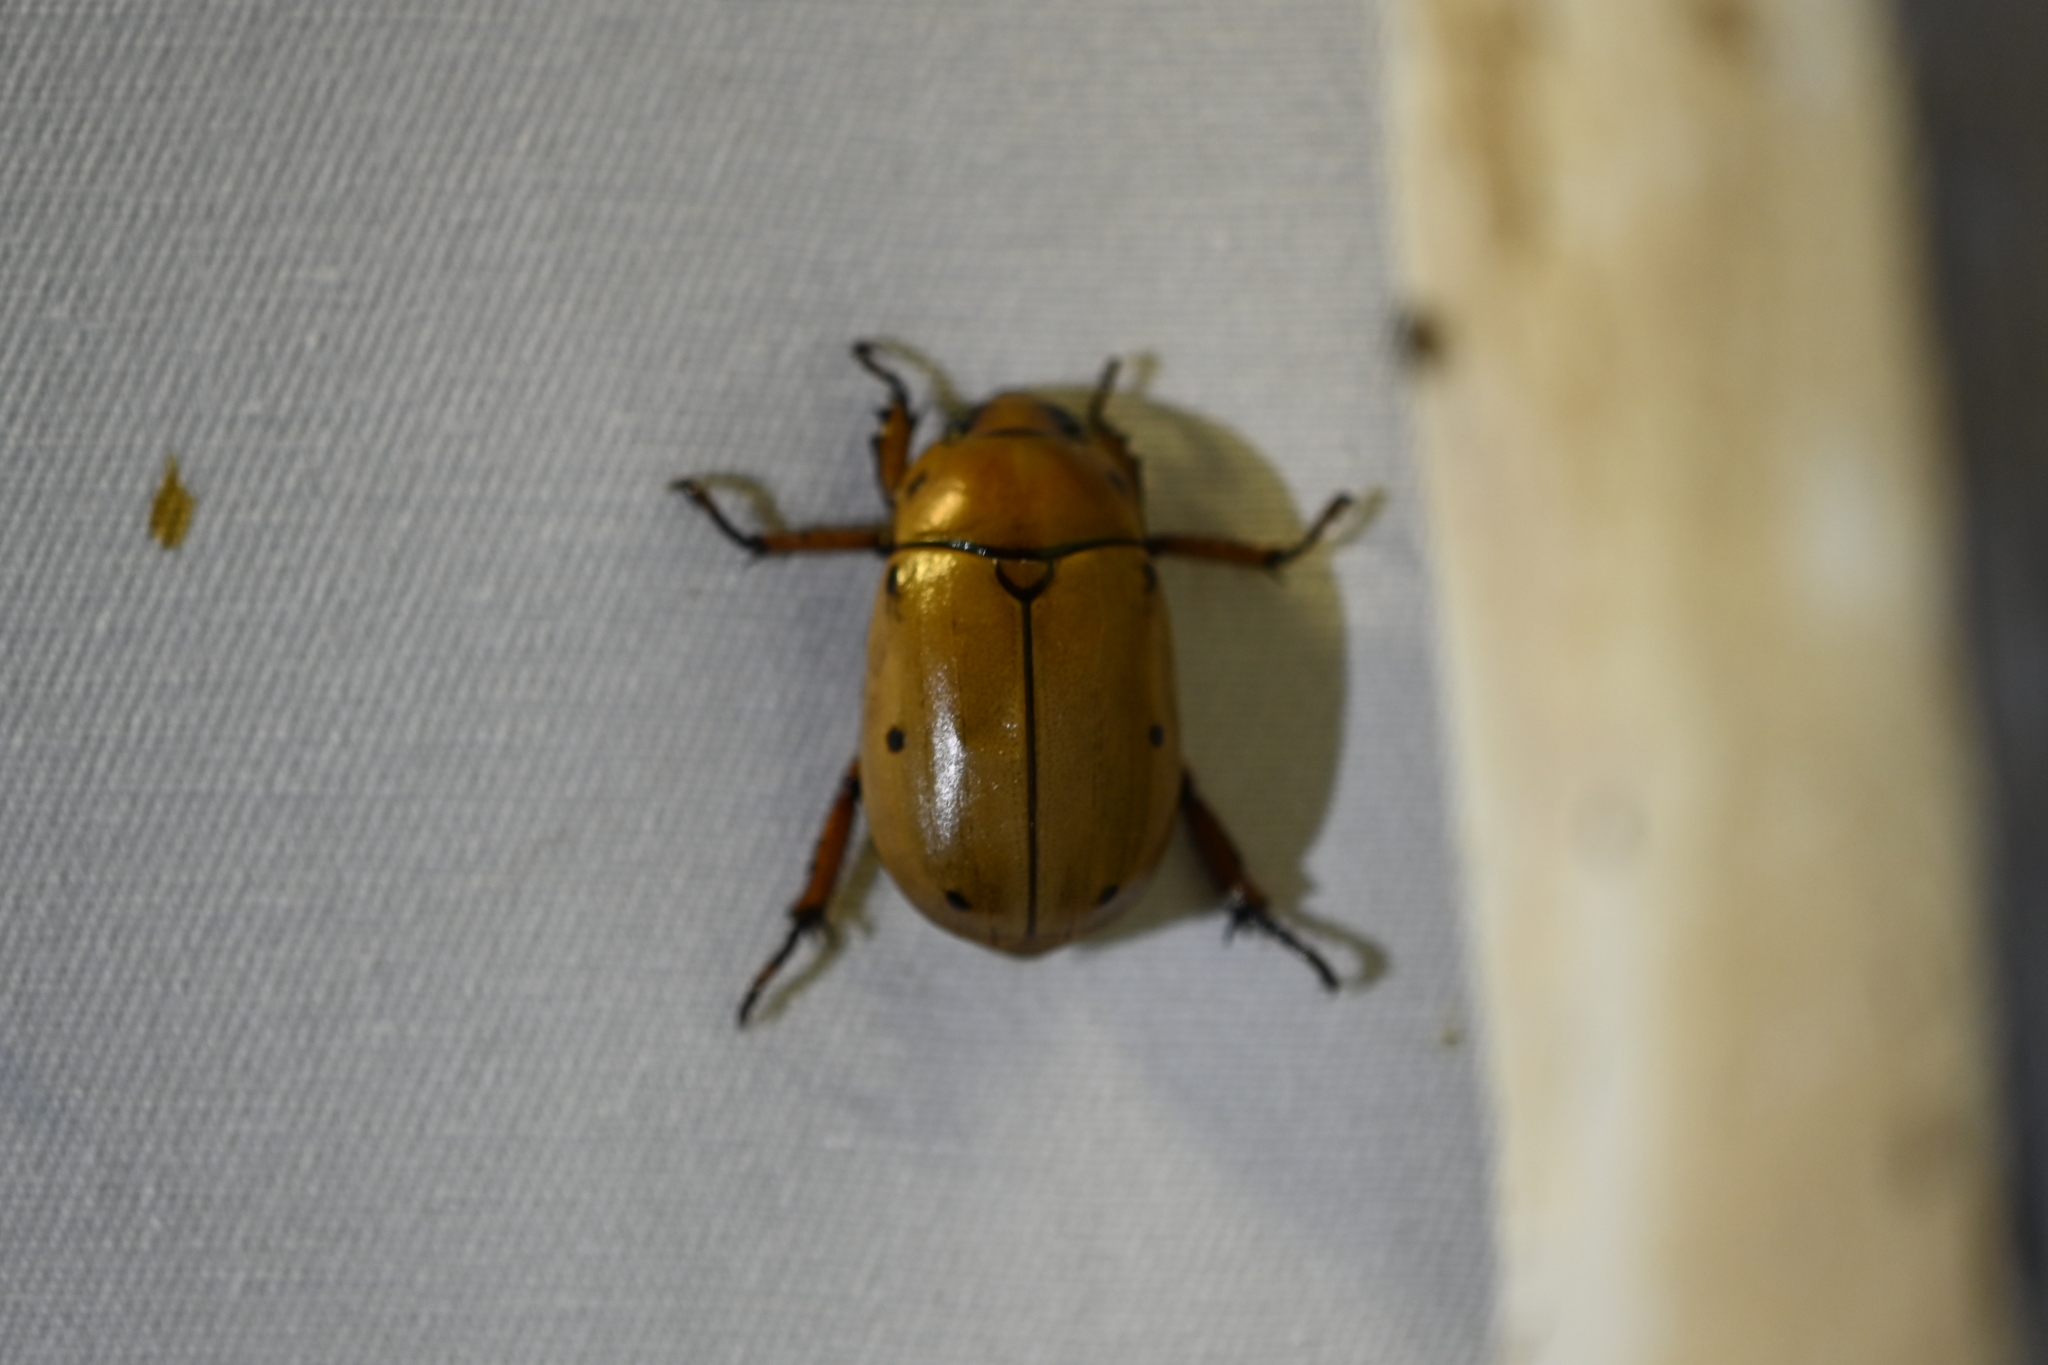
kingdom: Animalia
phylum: Arthropoda
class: Insecta
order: Coleoptera
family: Scarabaeidae
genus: Pelidnota
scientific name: Pelidnota punctata
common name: Grapevine beetle
